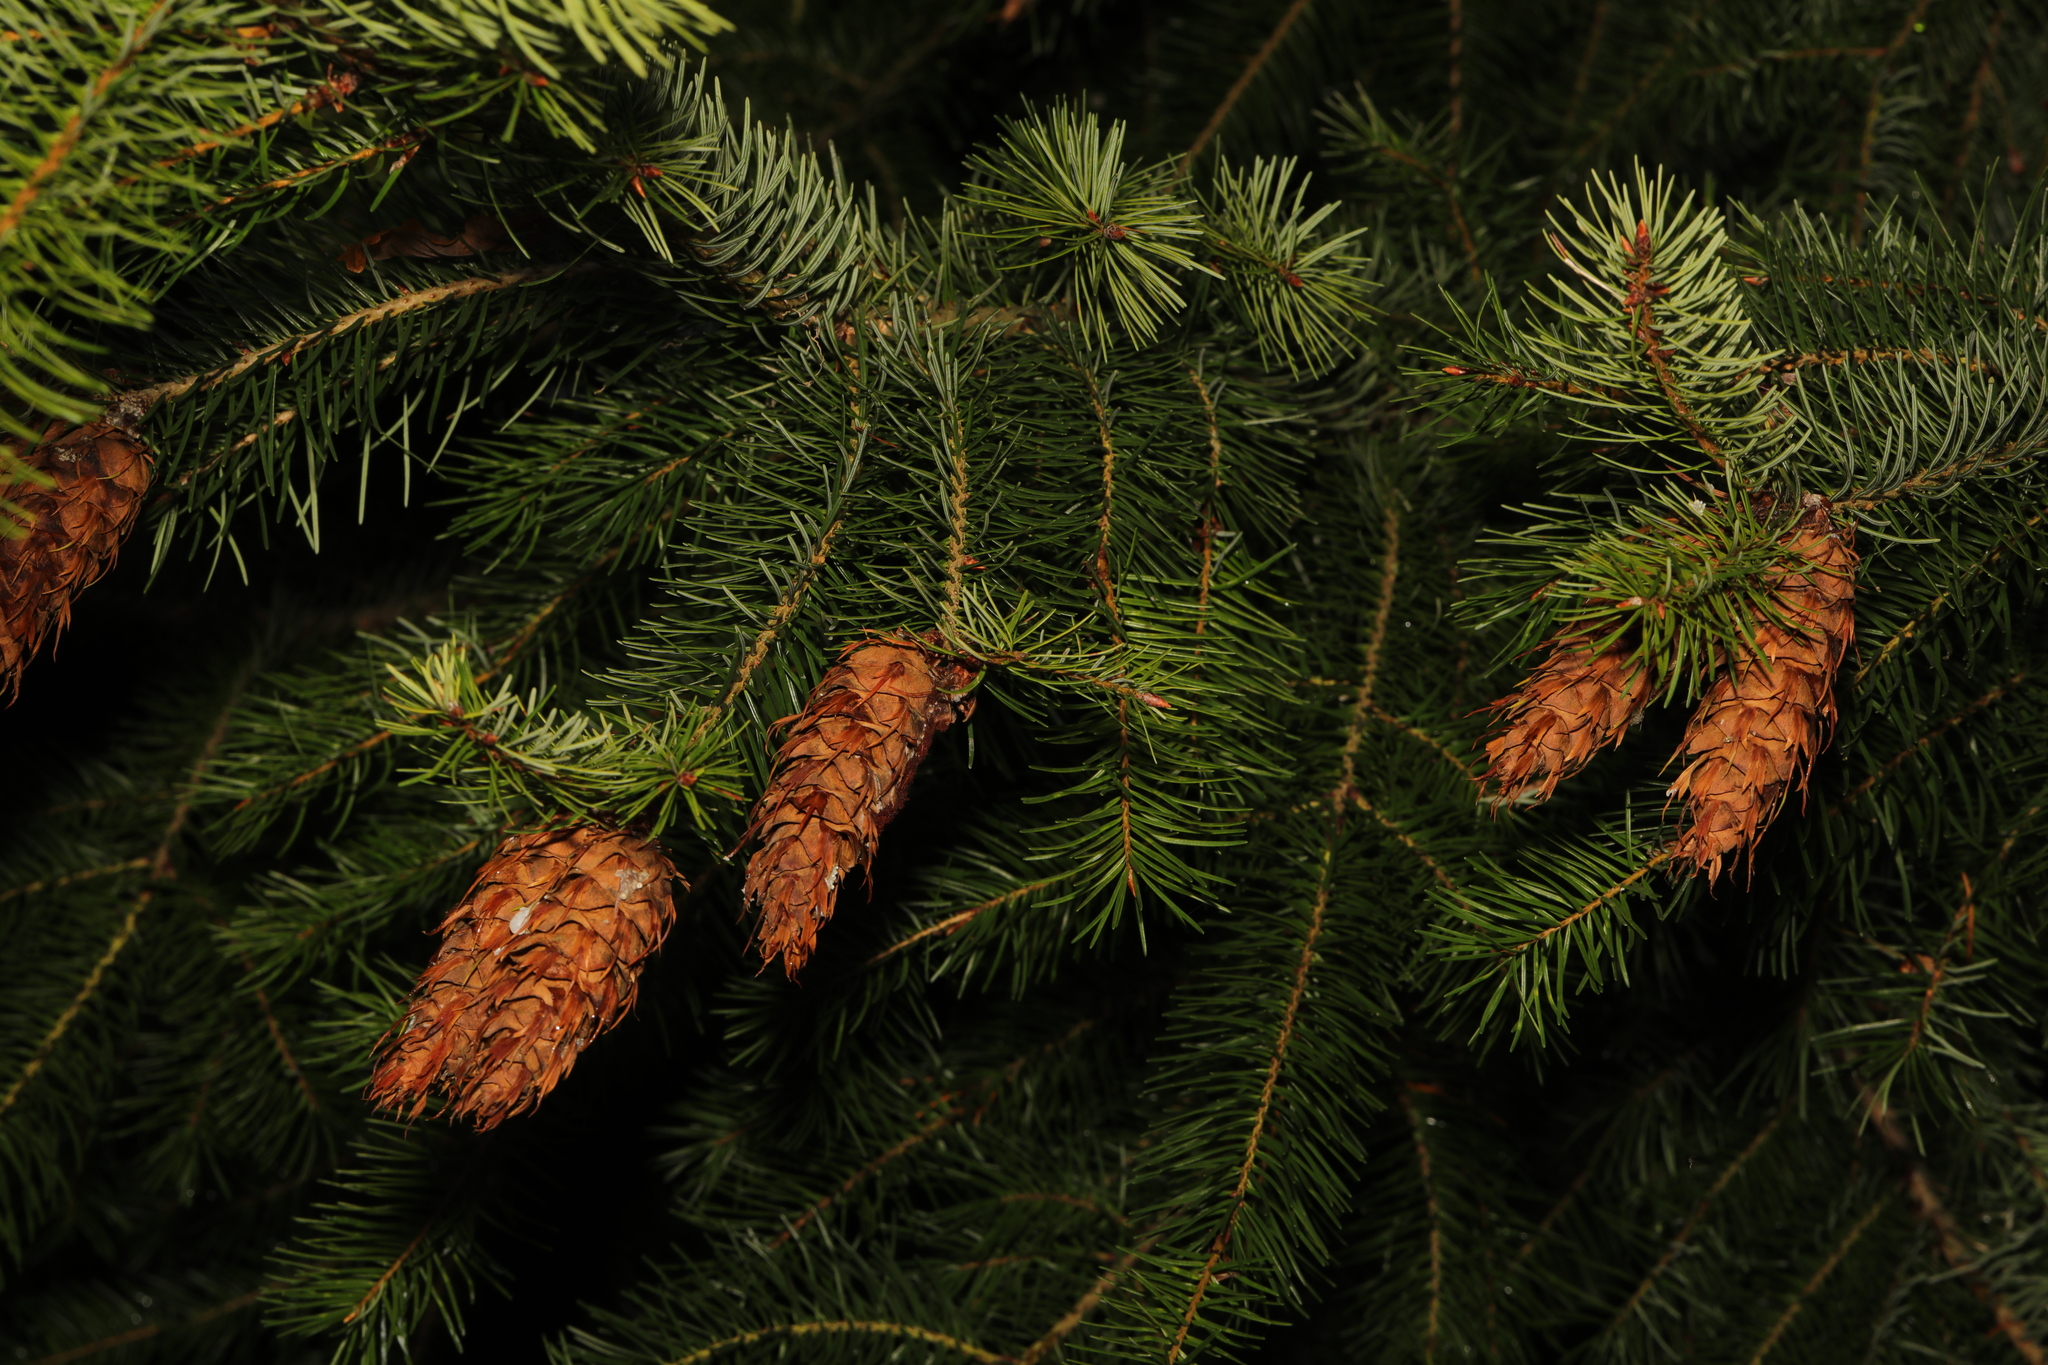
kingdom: Plantae
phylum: Tracheophyta
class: Pinopsida
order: Pinales
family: Pinaceae
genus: Pseudotsuga
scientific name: Pseudotsuga menziesii
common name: Douglas fir
